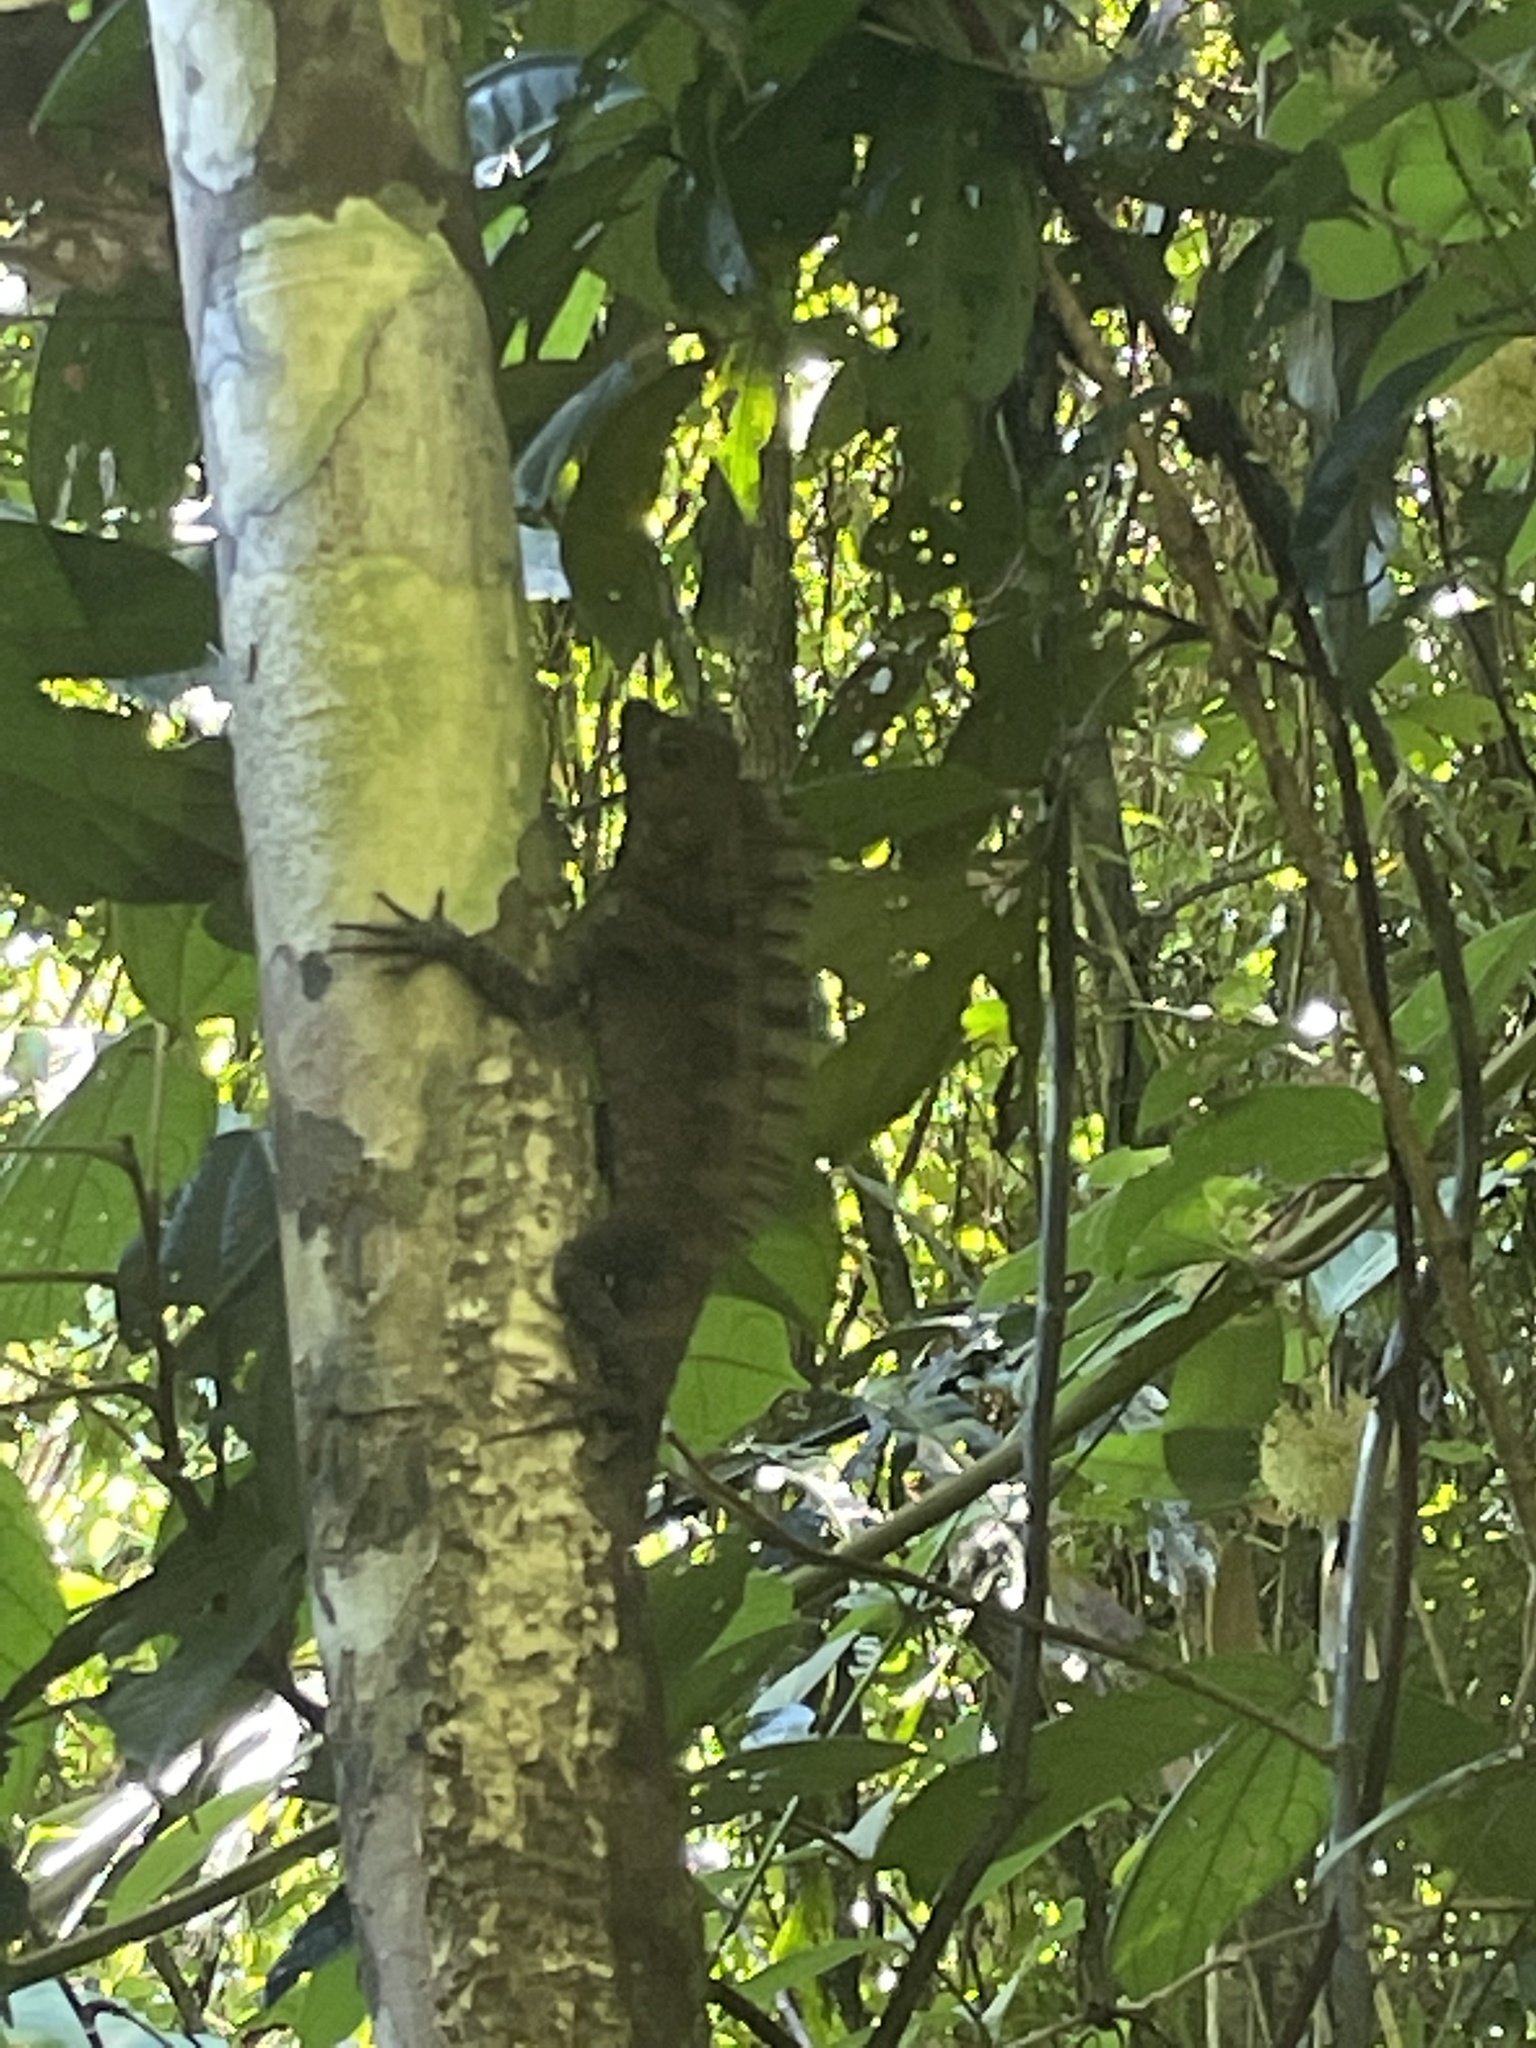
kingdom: Animalia
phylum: Chordata
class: Squamata
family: Agamidae
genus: Gonocephalus
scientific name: Gonocephalus bornensis
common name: Borneo forest dragon
